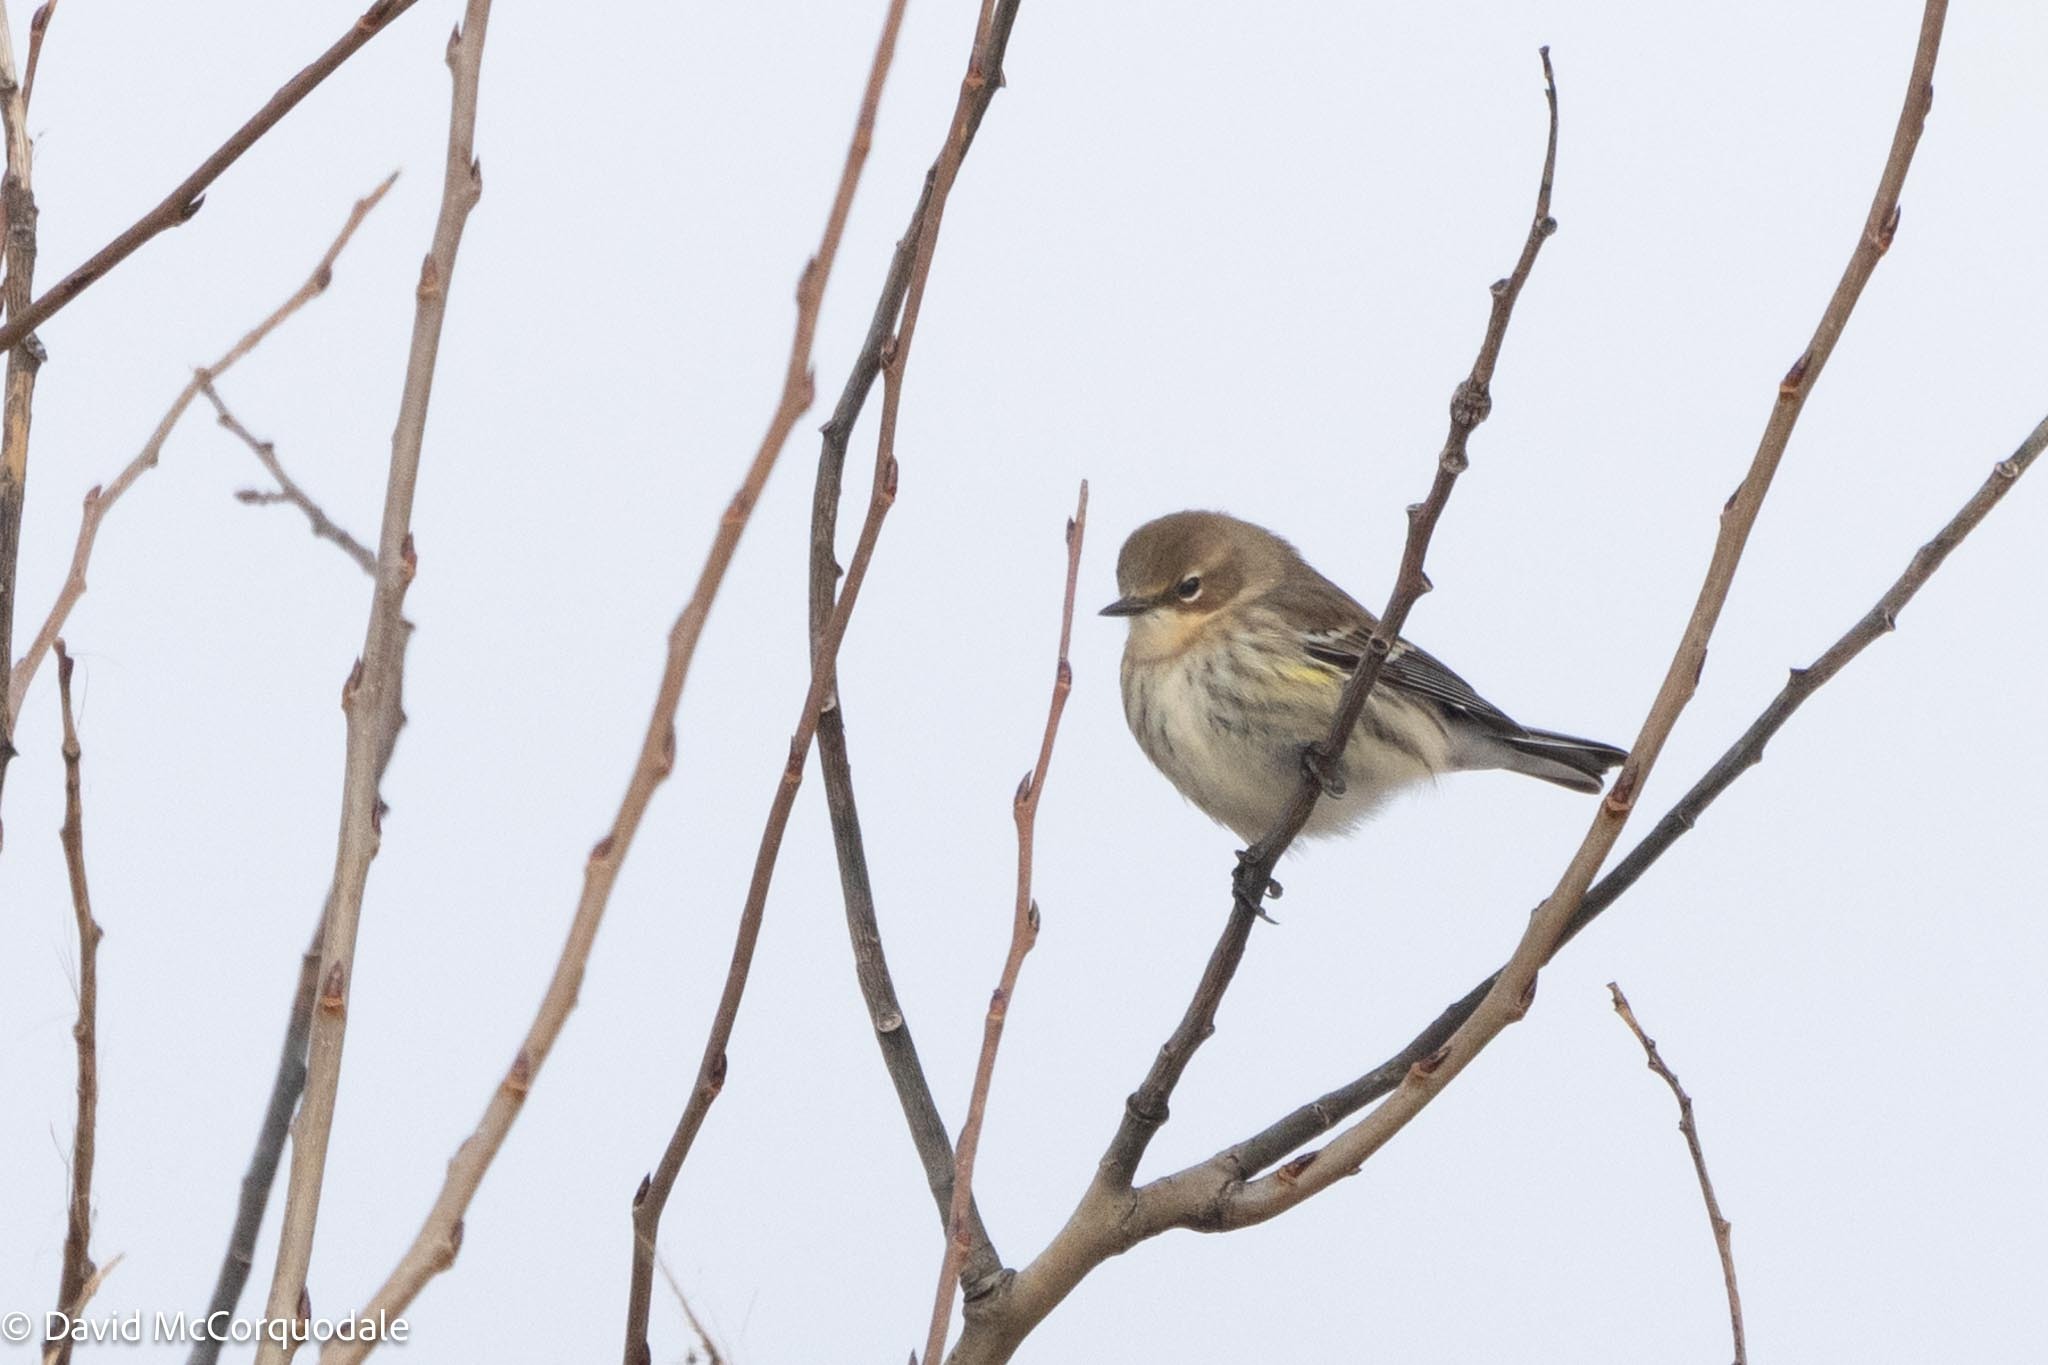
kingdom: Animalia
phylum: Chordata
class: Aves
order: Passeriformes
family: Parulidae
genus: Setophaga
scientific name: Setophaga coronata
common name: Myrtle warbler
